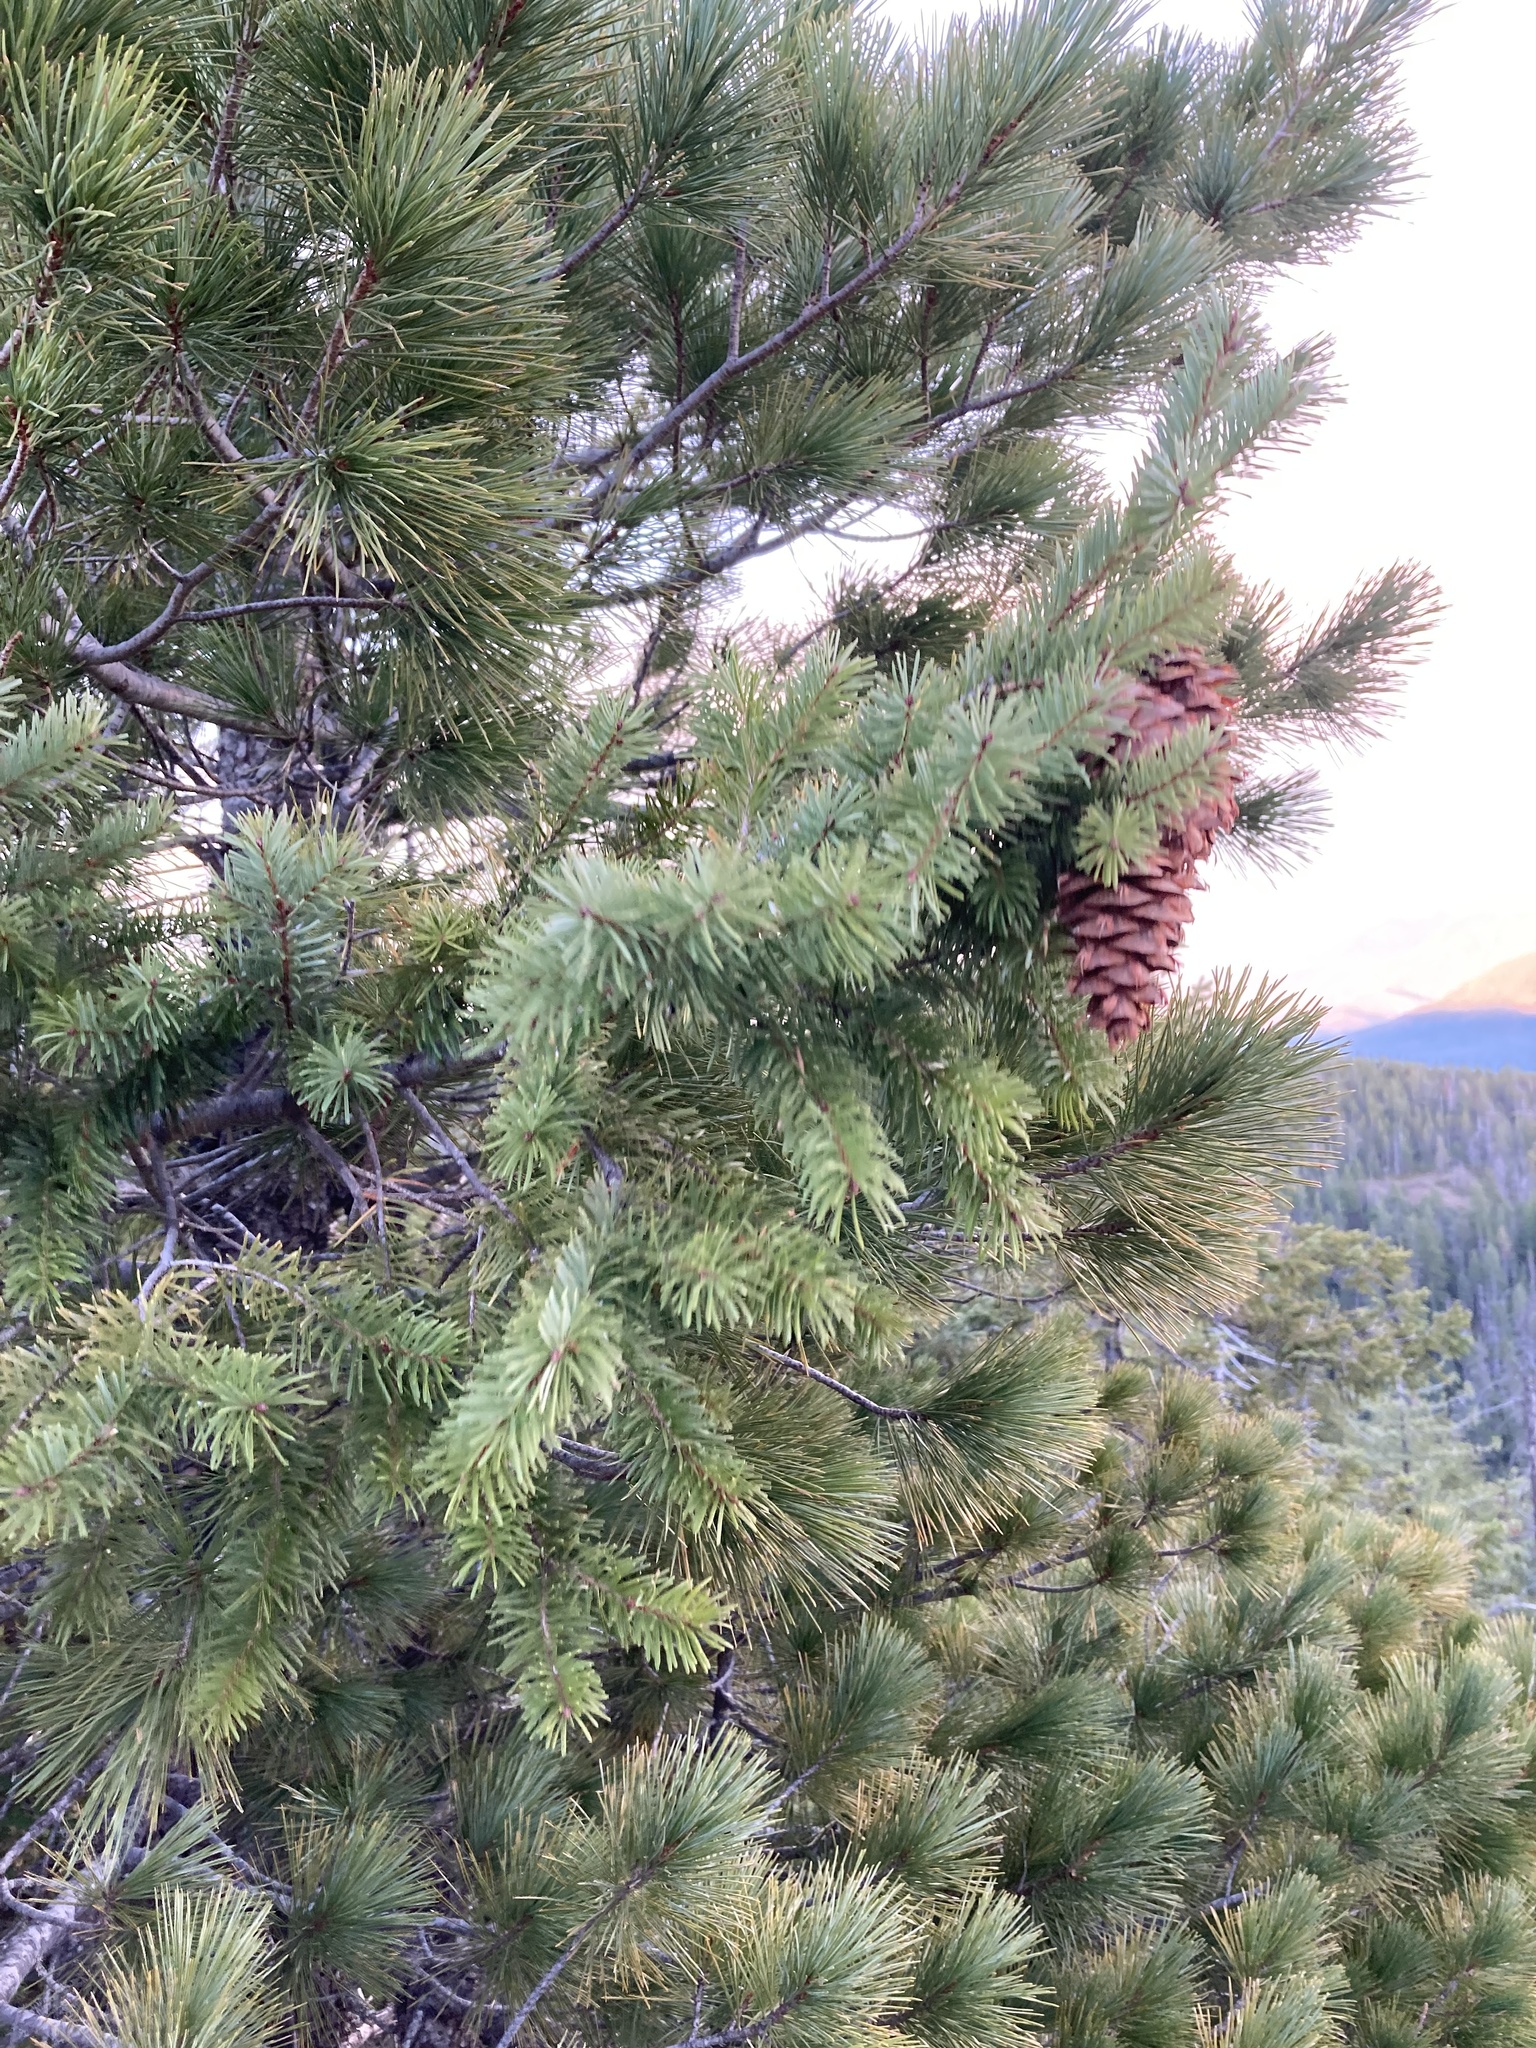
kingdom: Plantae
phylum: Tracheophyta
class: Pinopsida
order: Pinales
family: Pinaceae
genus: Pseudotsuga
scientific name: Pseudotsuga menziesii
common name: Douglas fir
